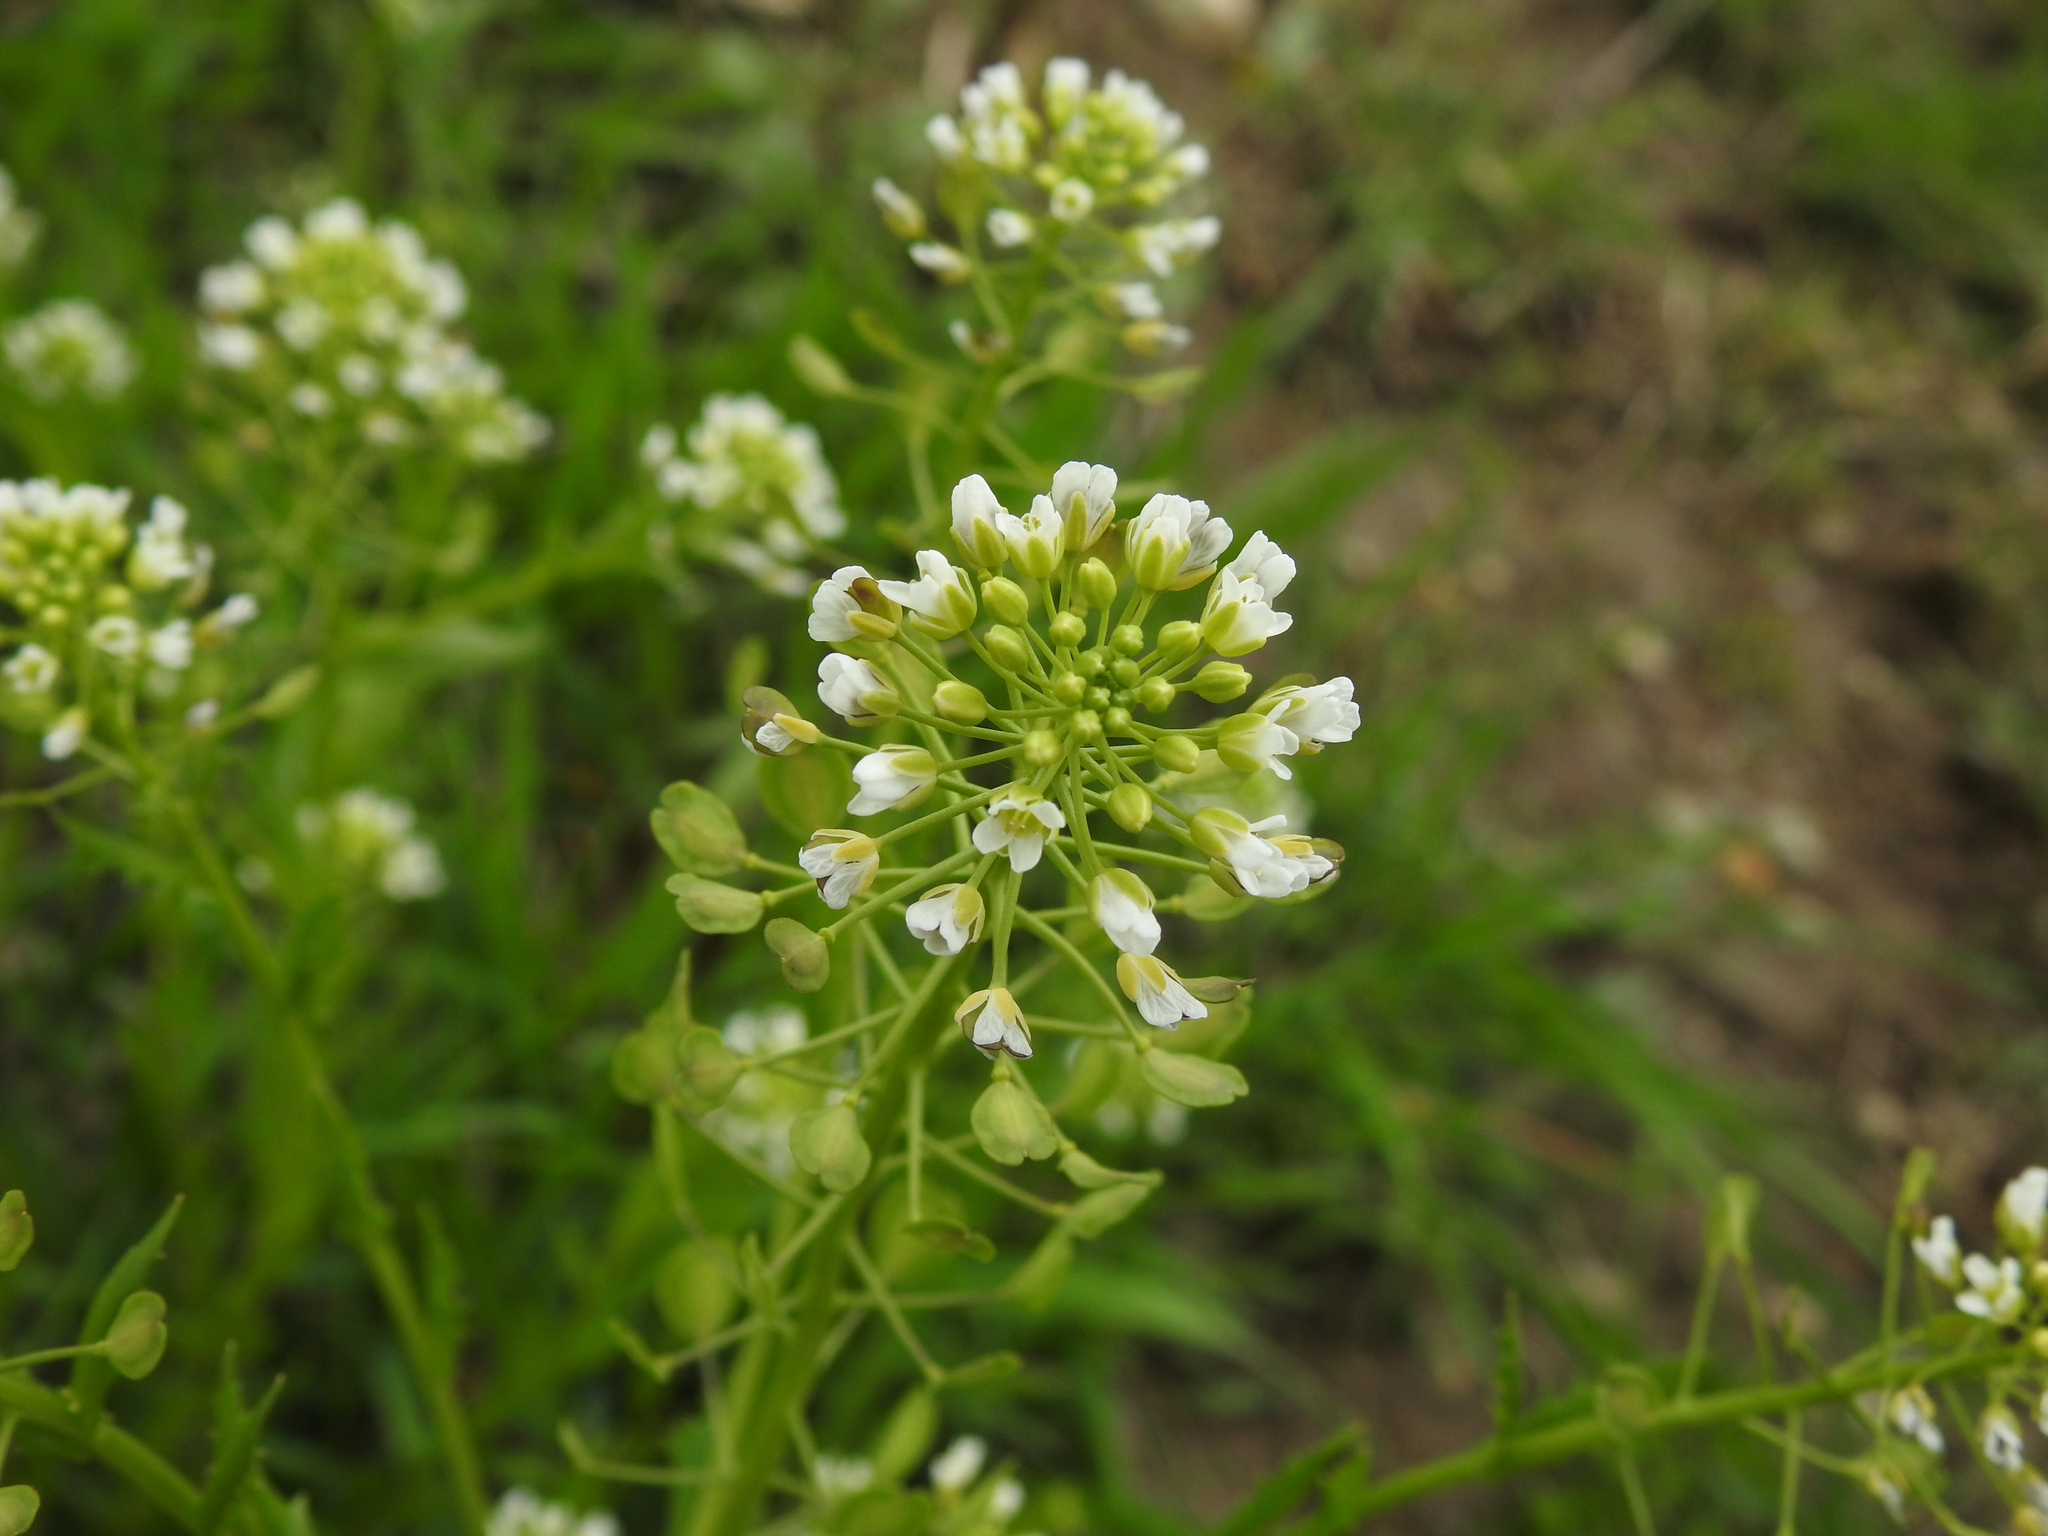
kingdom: Plantae
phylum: Tracheophyta
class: Magnoliopsida
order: Brassicales
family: Brassicaceae
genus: Thlaspi
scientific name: Thlaspi arvense
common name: Field pennycress
